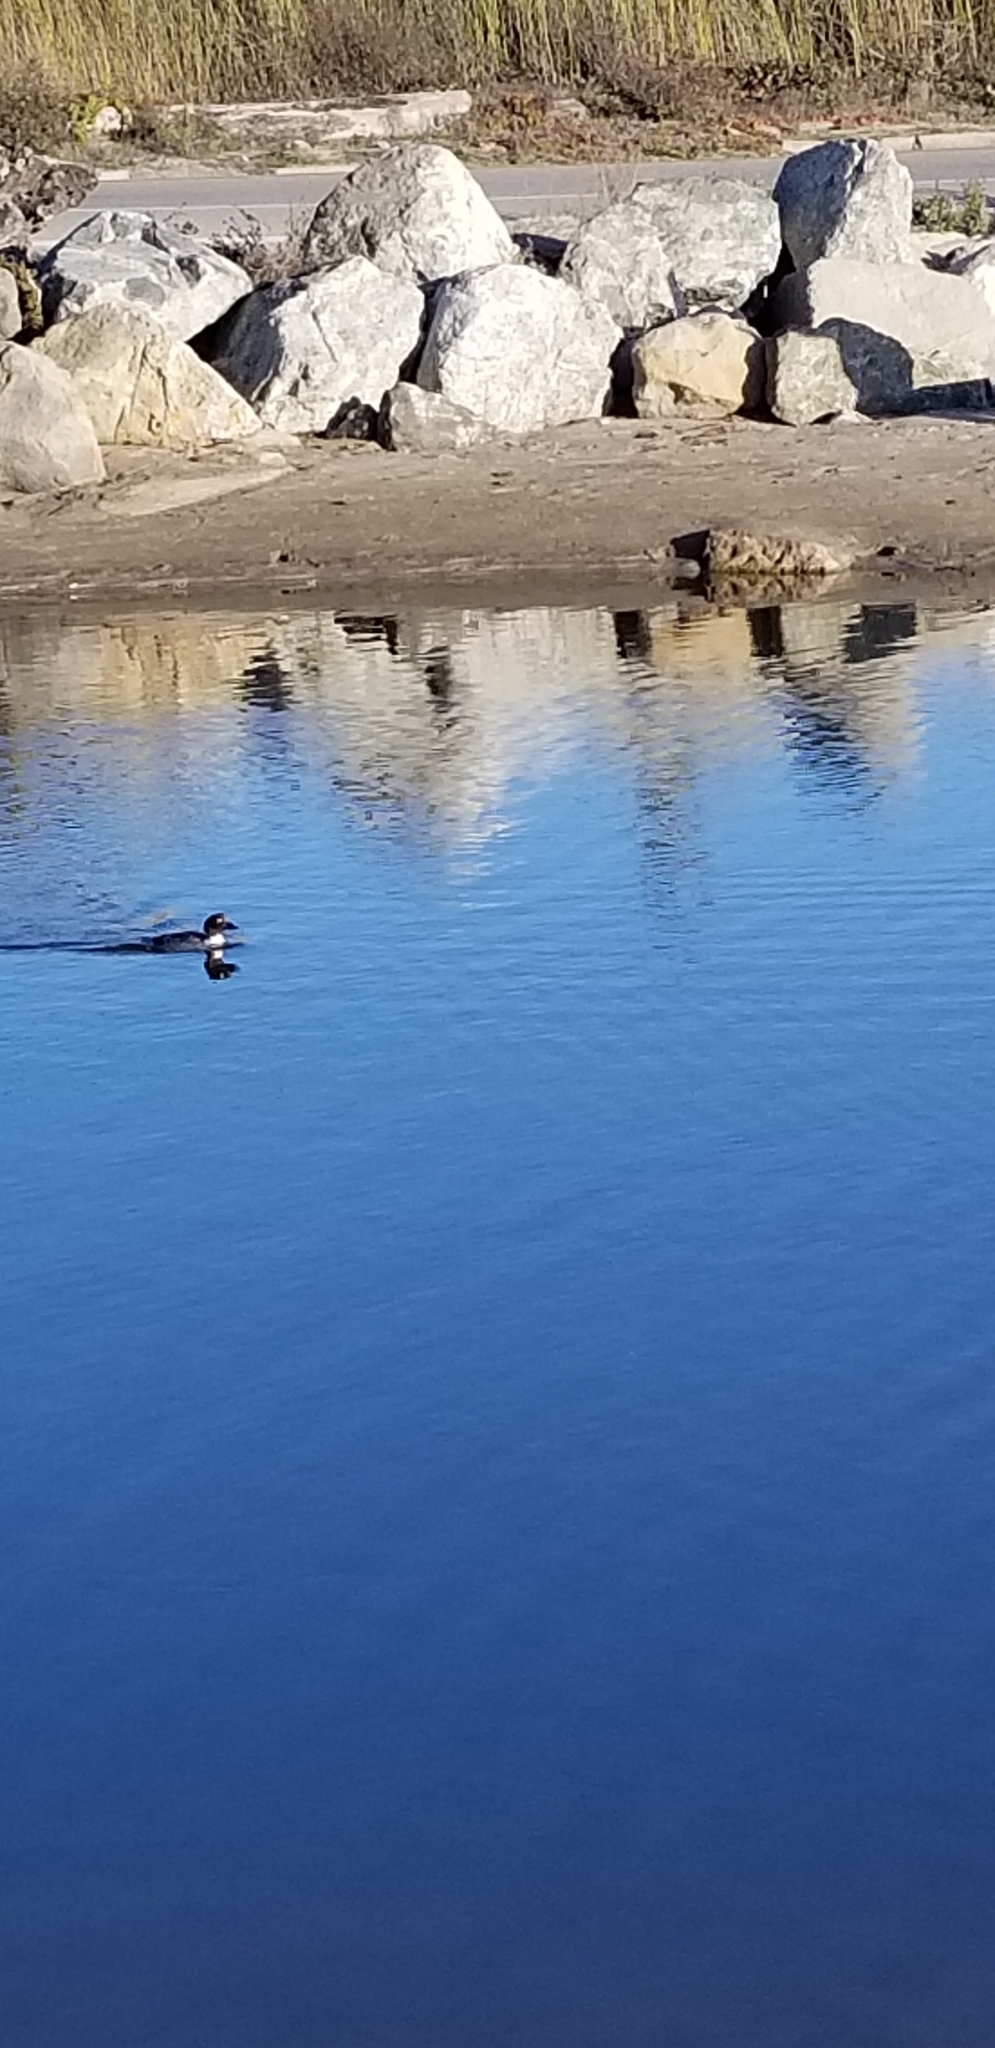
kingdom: Animalia
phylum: Chordata
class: Aves
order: Anseriformes
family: Anatidae
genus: Bucephala
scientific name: Bucephala clangula
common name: Common goldeneye
